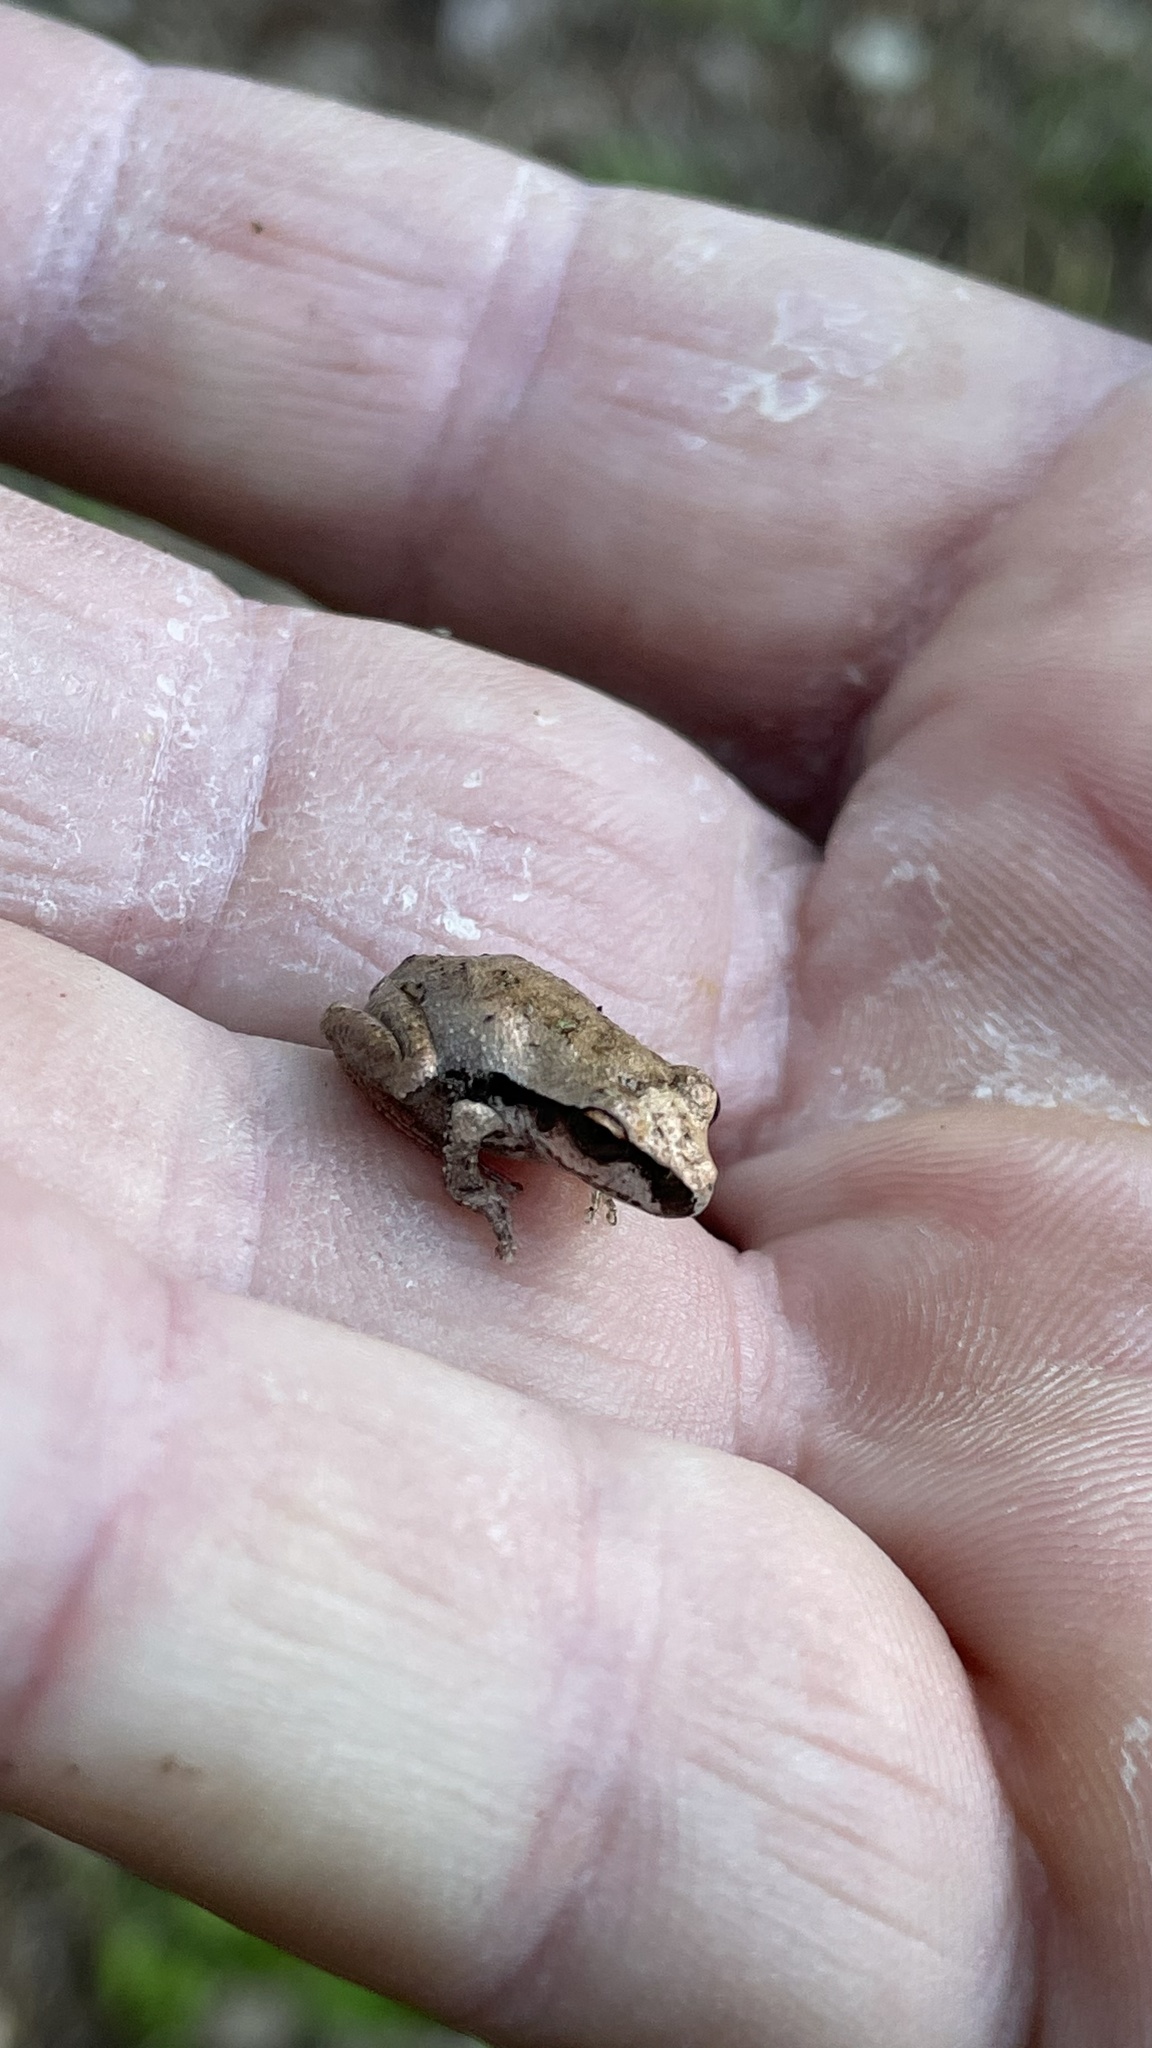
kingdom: Animalia
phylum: Chordata
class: Amphibia
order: Anura
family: Pelodryadidae
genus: Ranoidea
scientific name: Ranoidea wilcoxii
